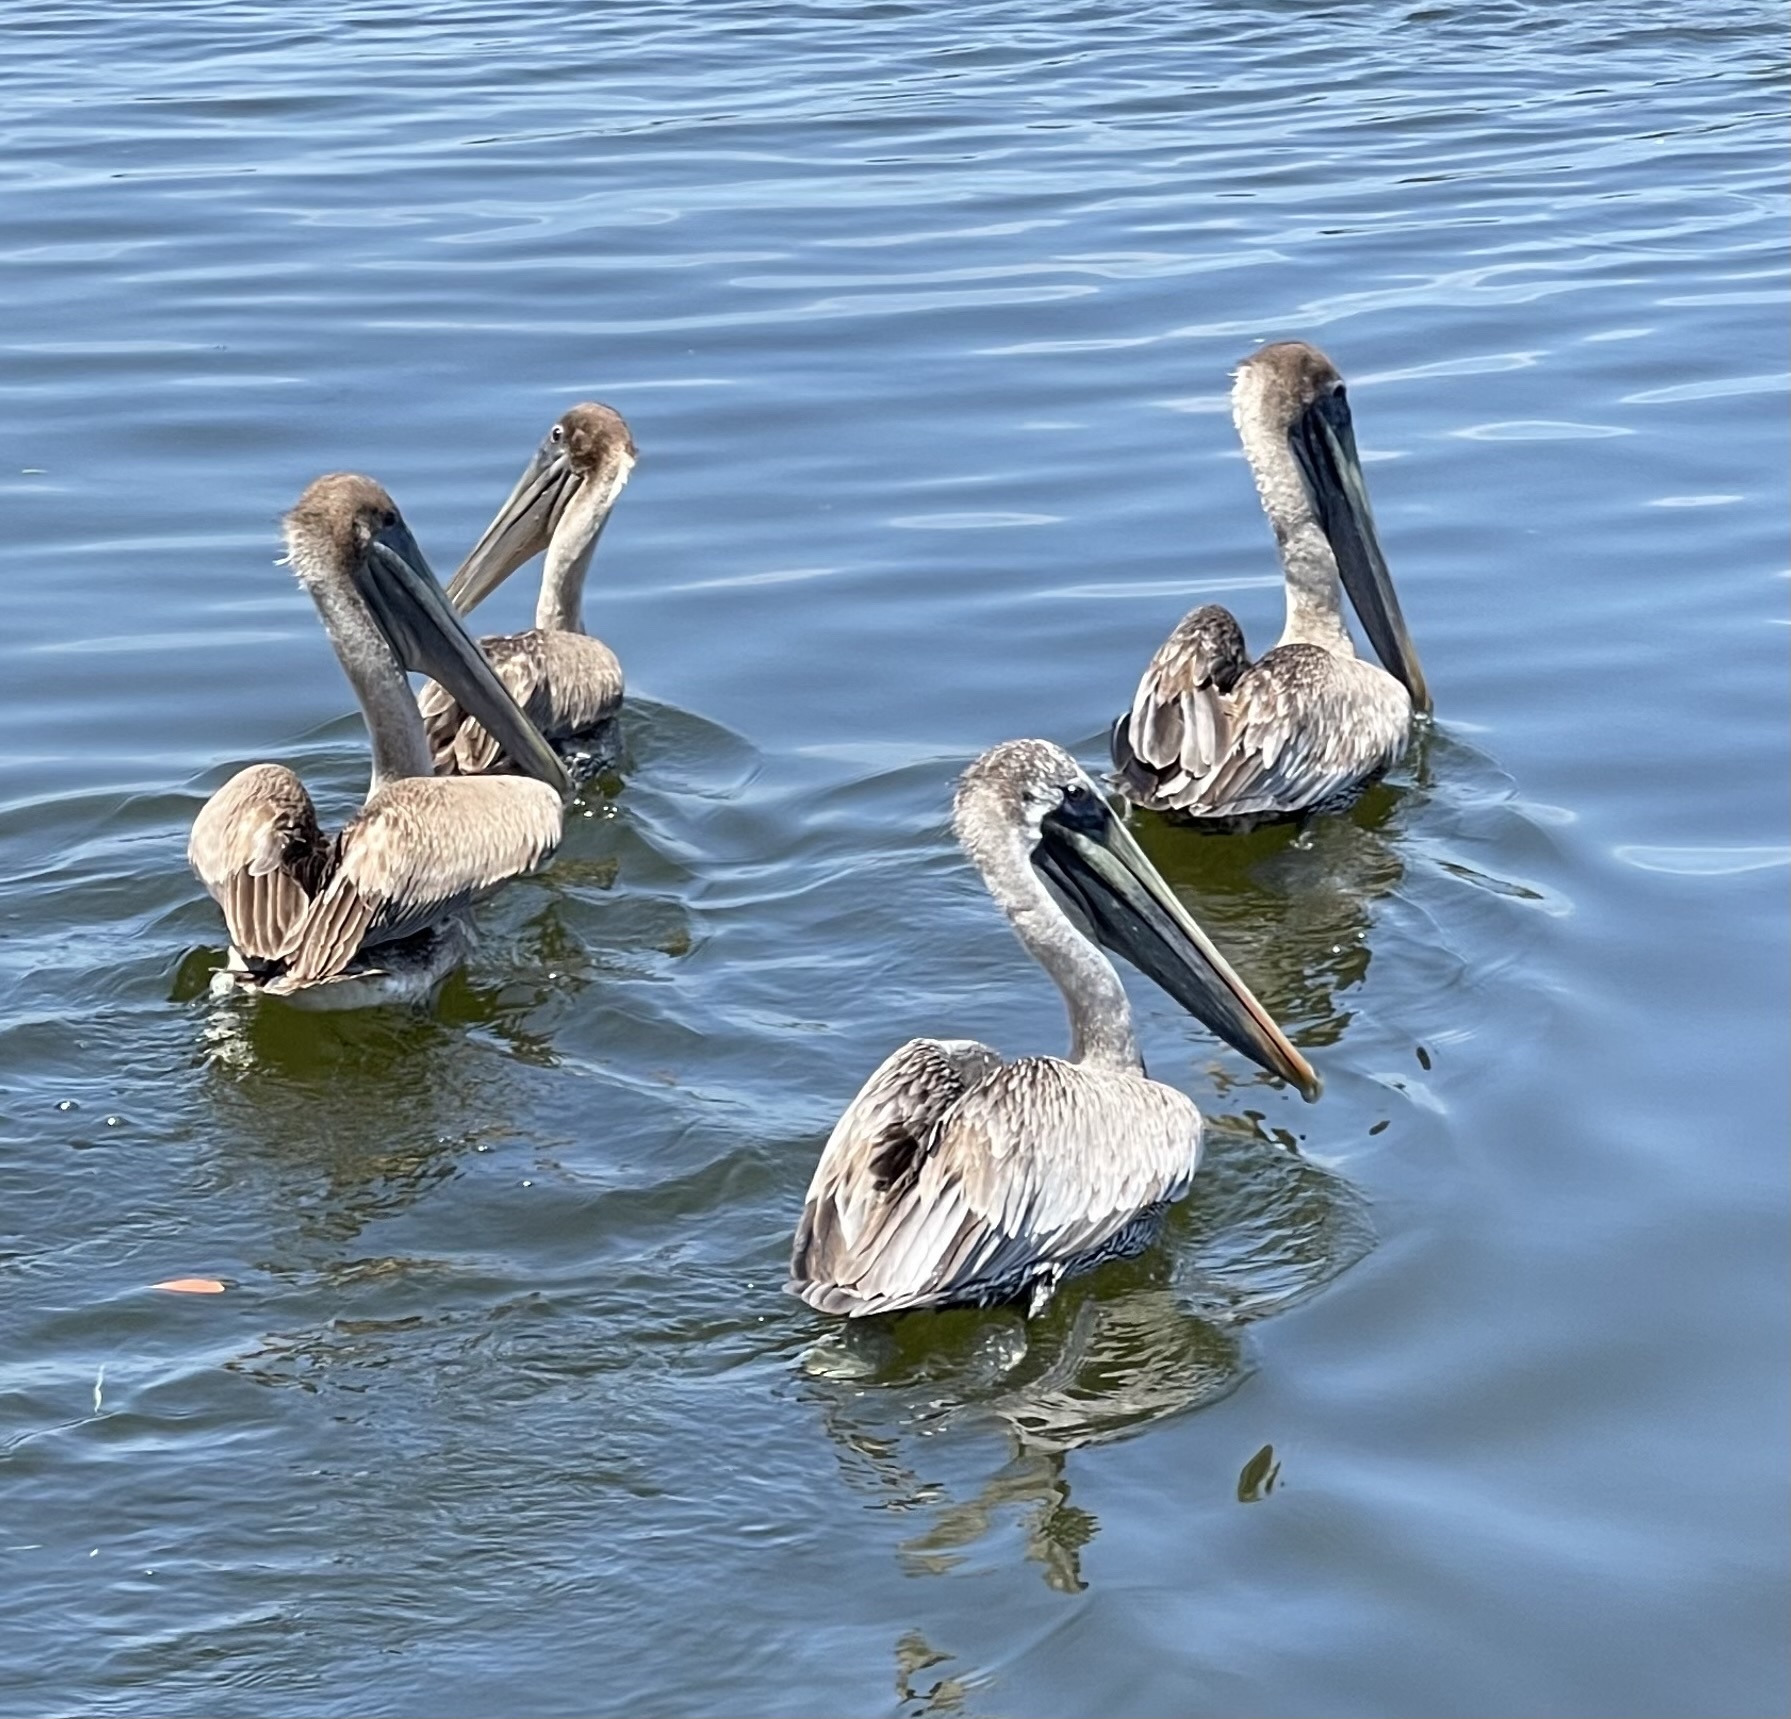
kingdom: Animalia
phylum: Chordata
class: Aves
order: Pelecaniformes
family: Pelecanidae
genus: Pelecanus
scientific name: Pelecanus occidentalis
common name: Brown pelican
